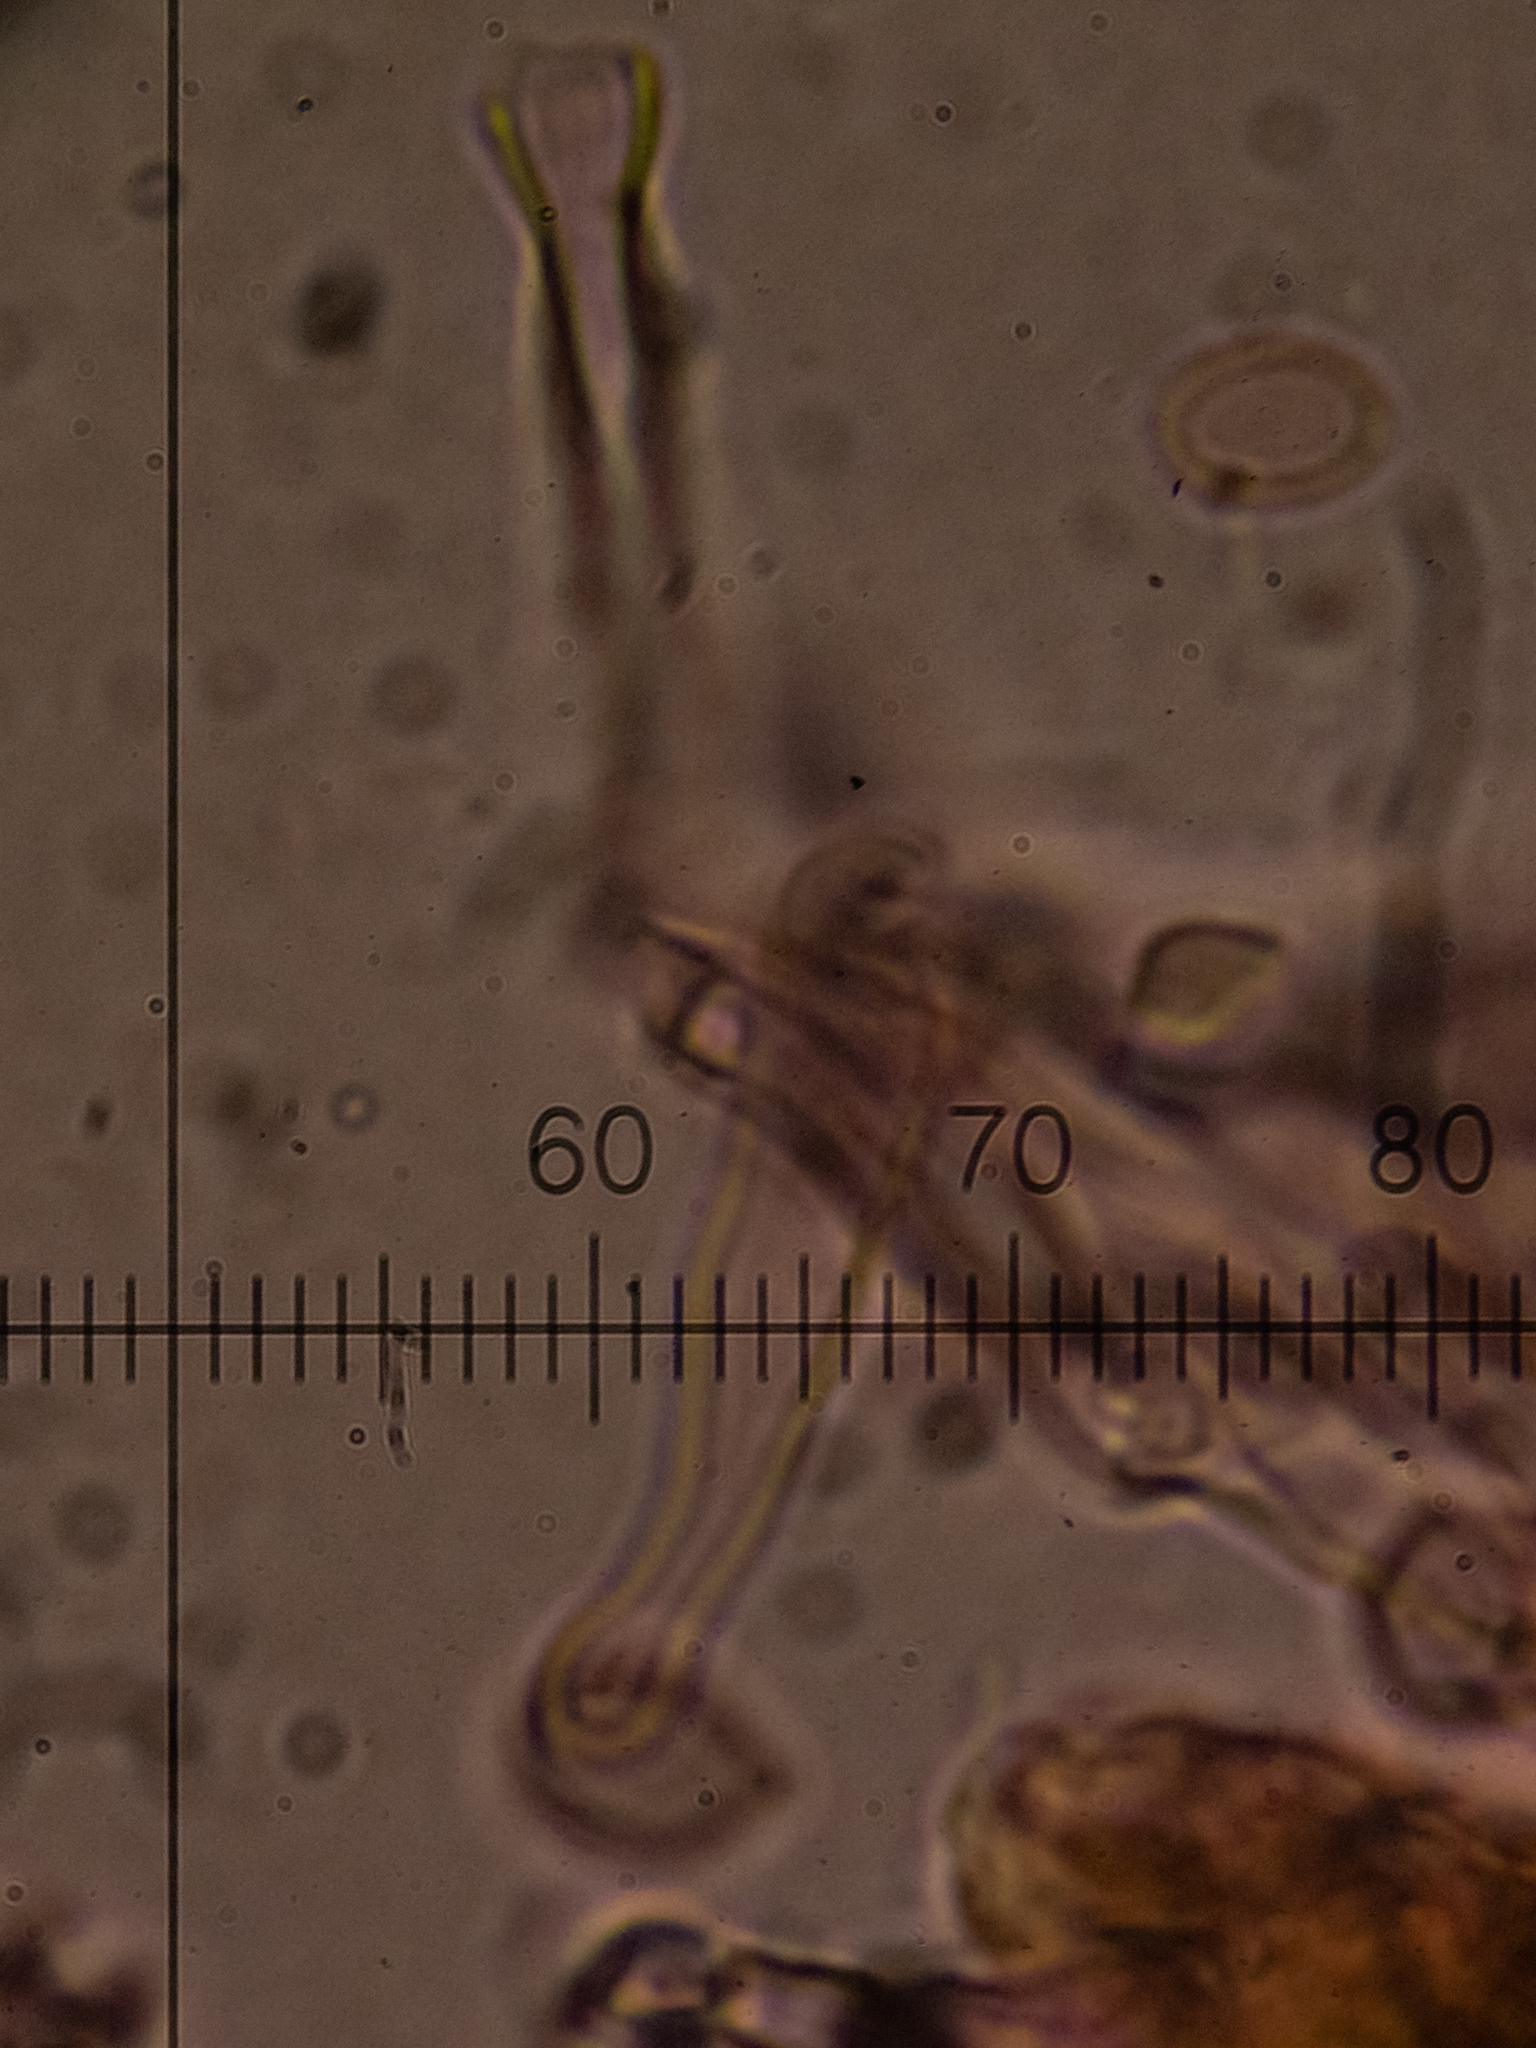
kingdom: Fungi
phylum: Basidiomycota
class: Agaricomycetes
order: Corticiales
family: Corticiaceae
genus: Lyomyces
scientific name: Lyomyces sambuci
